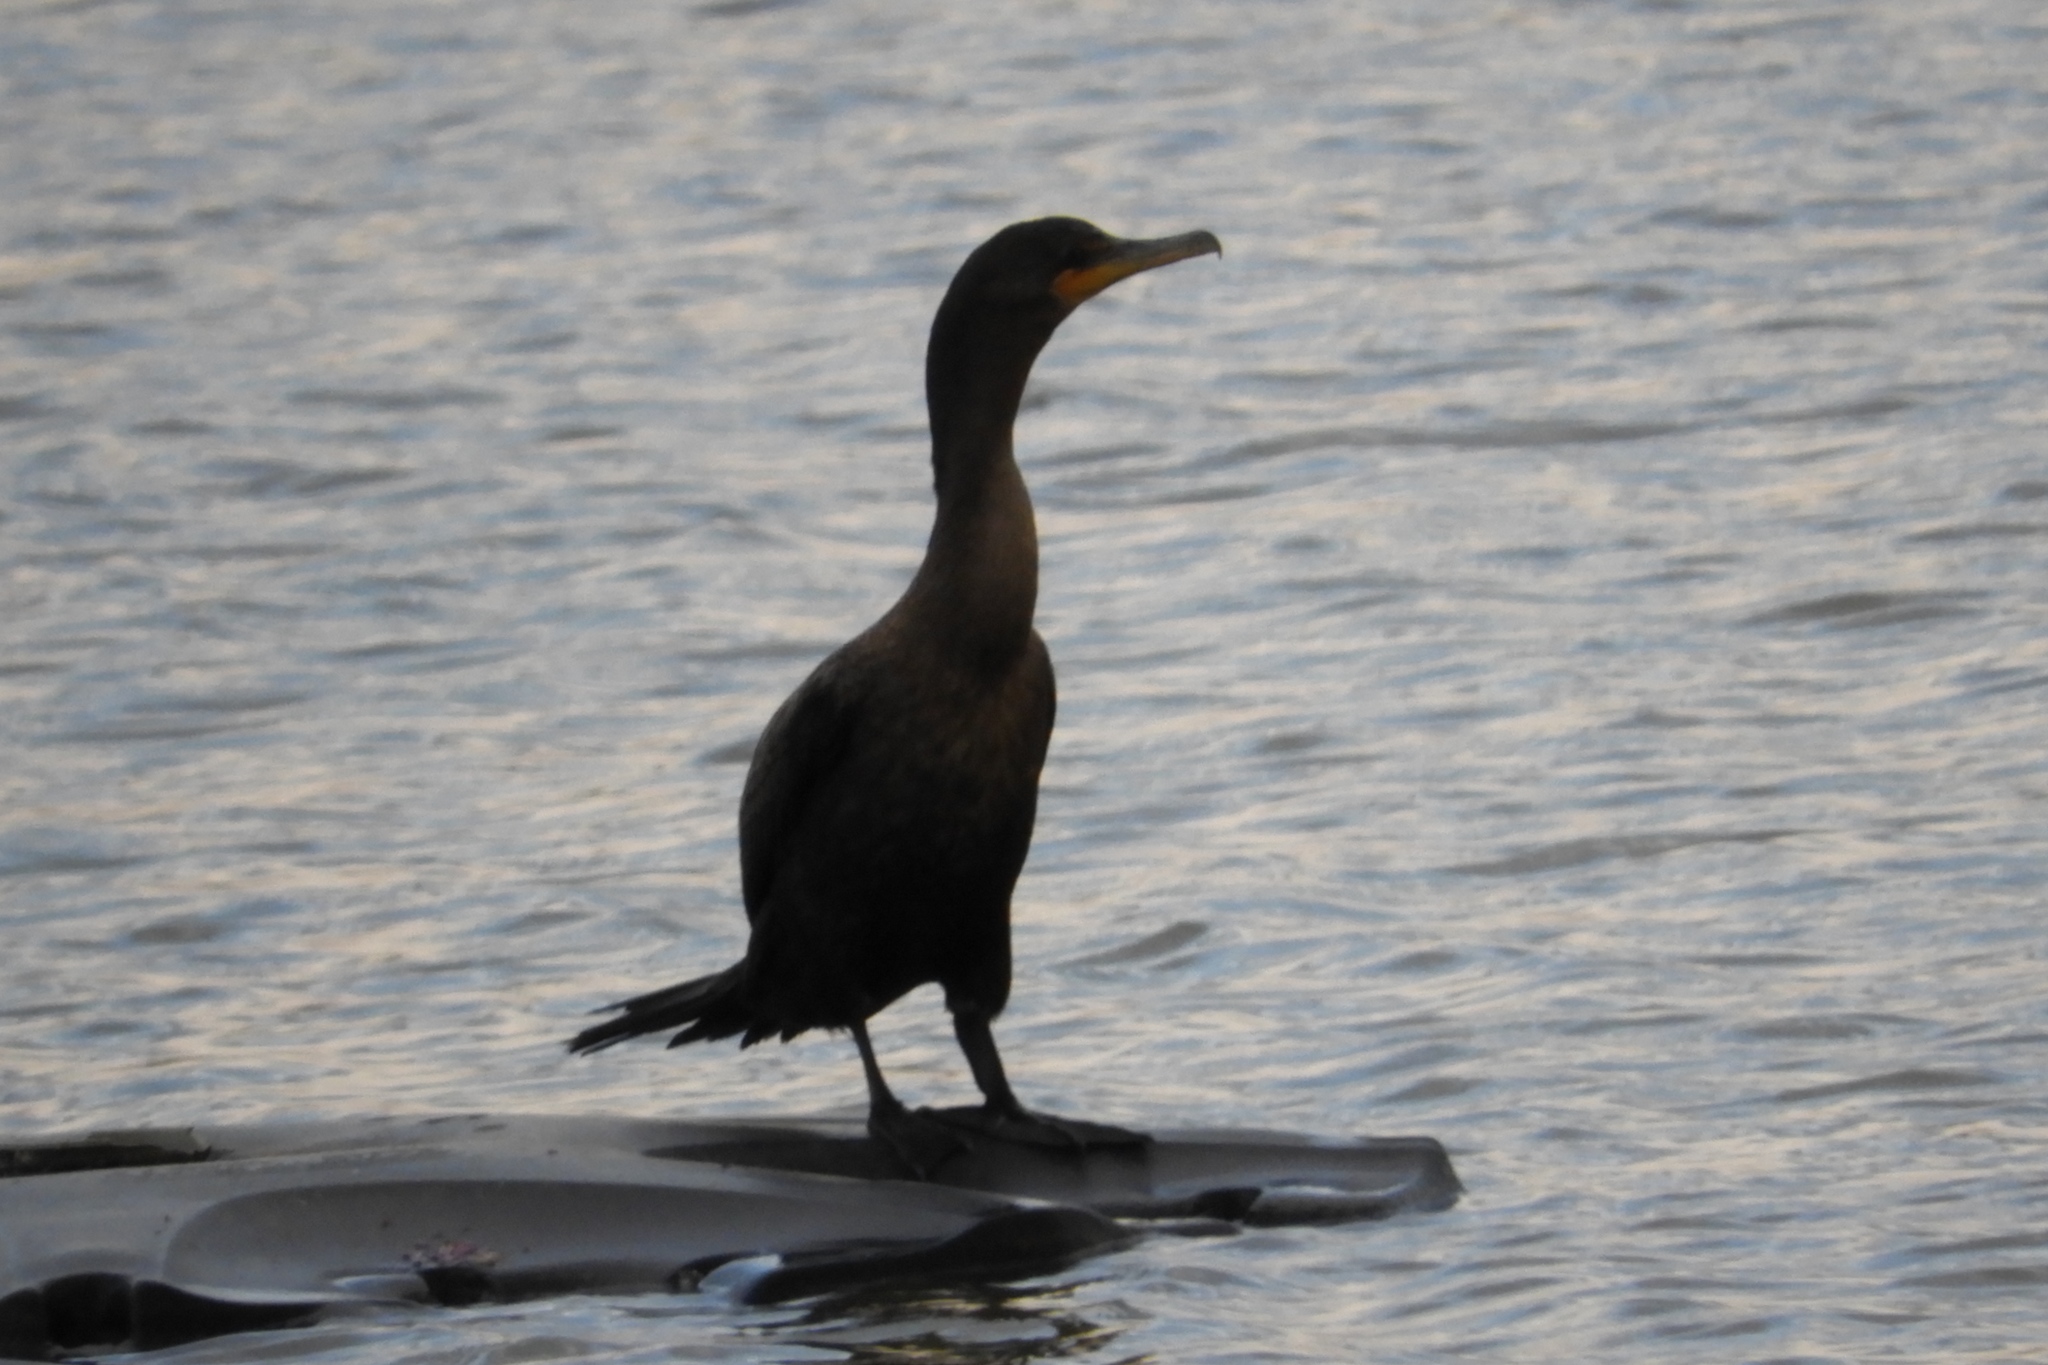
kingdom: Animalia
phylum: Chordata
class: Aves
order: Suliformes
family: Phalacrocoracidae
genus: Phalacrocorax
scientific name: Phalacrocorax auritus
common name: Double-crested cormorant
